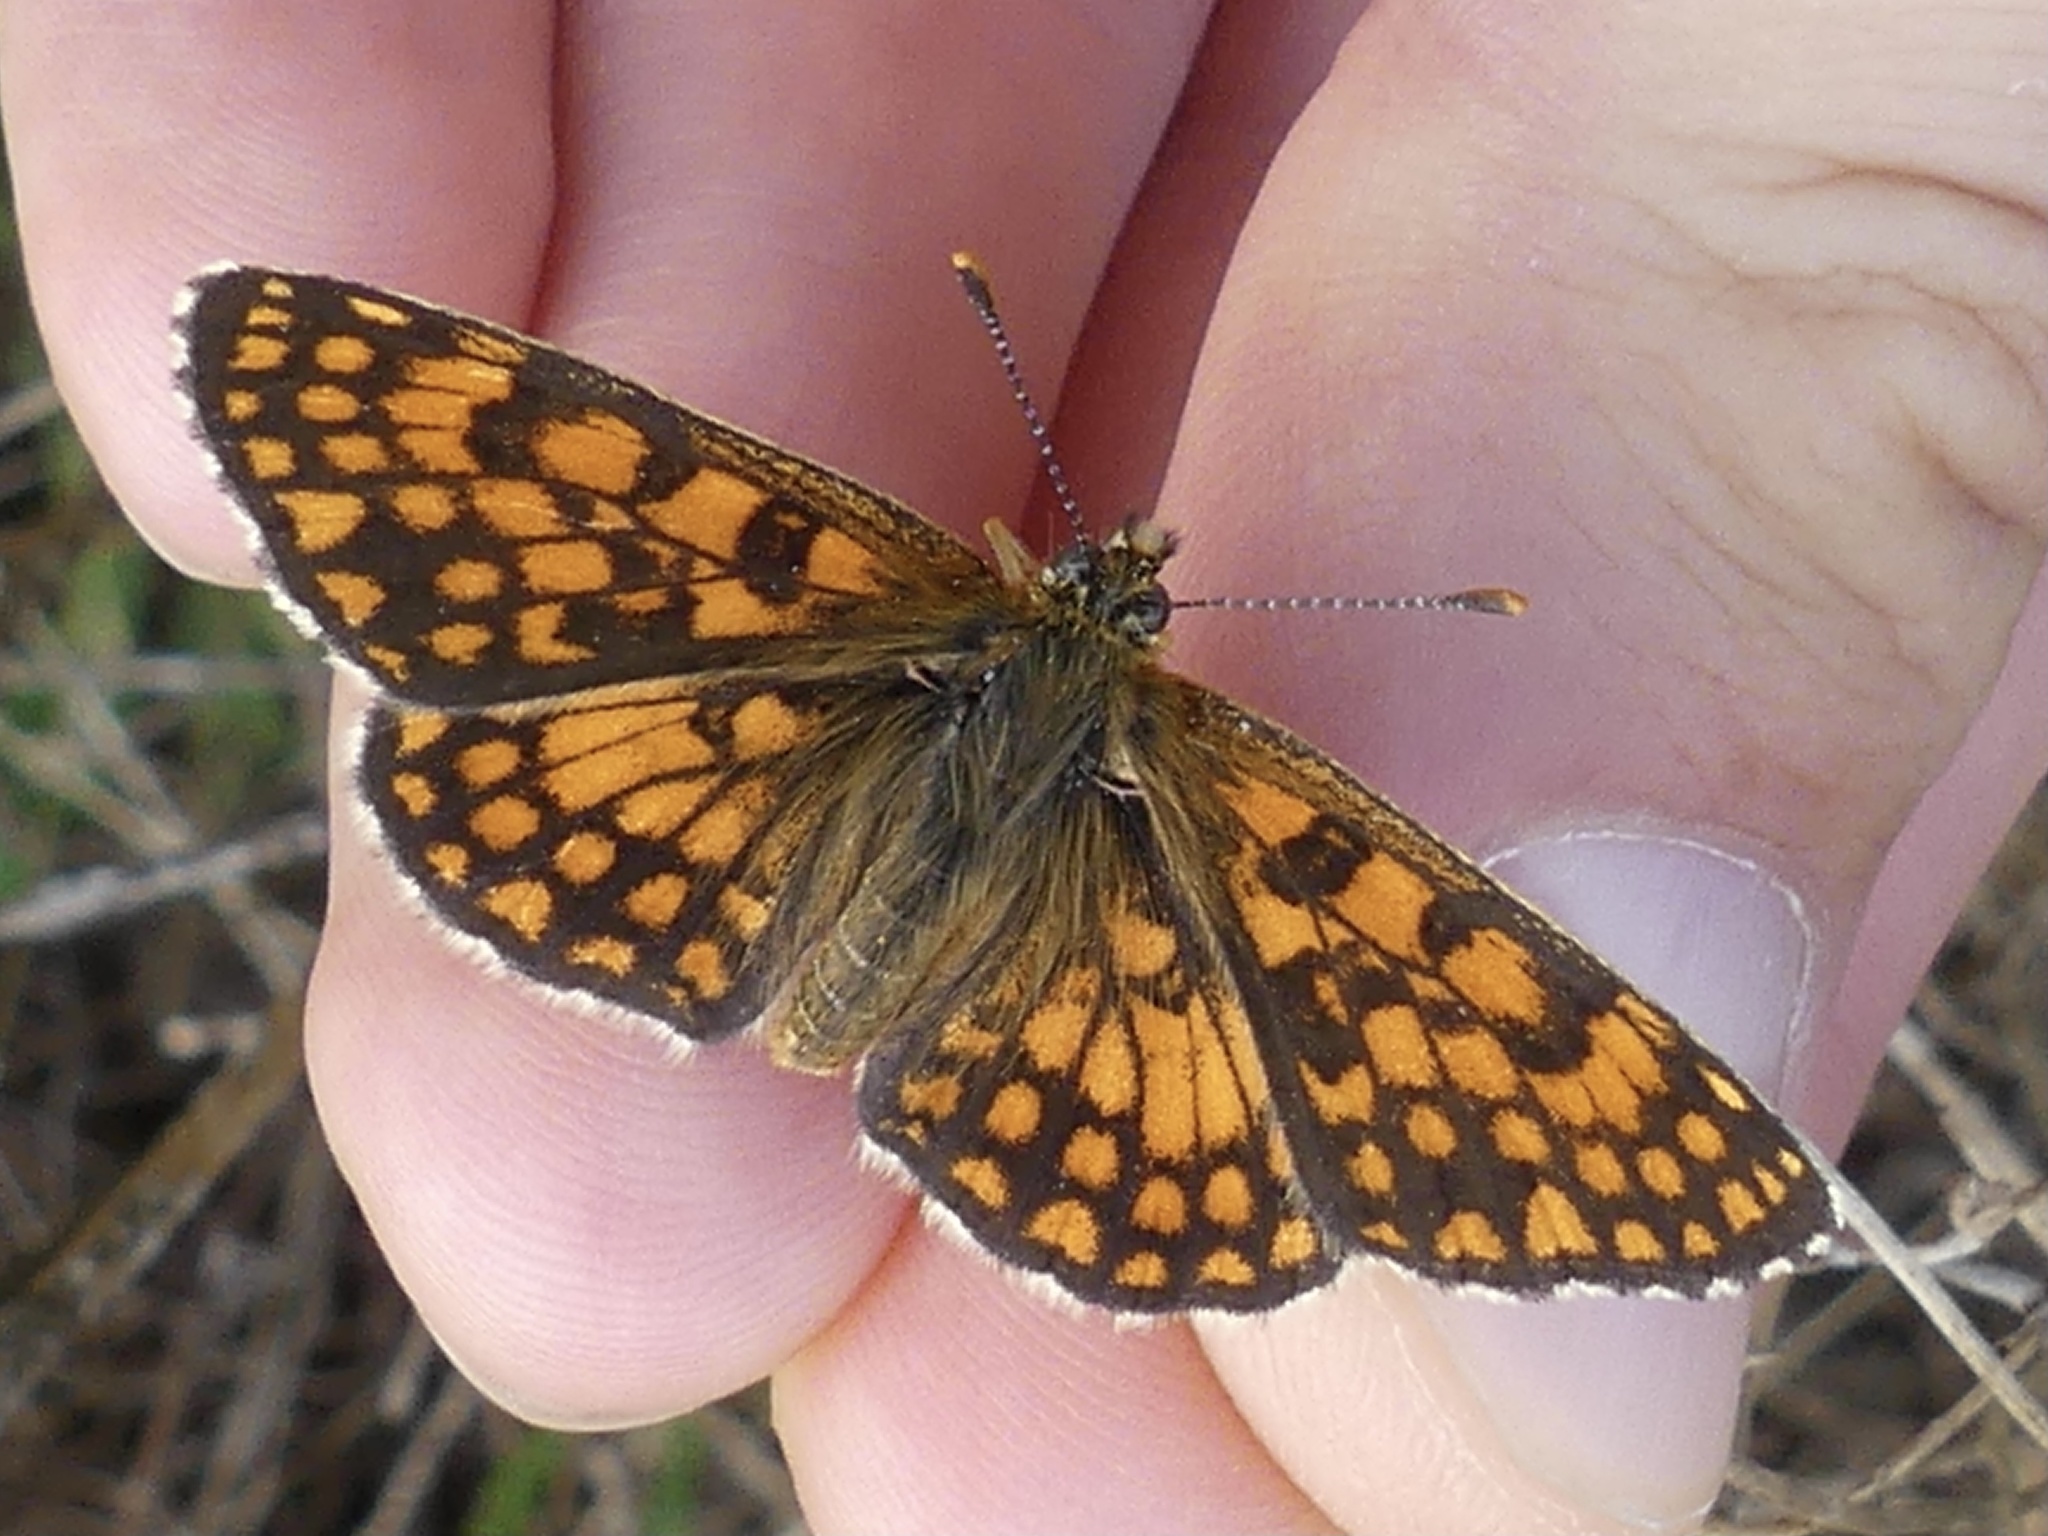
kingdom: Animalia
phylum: Arthropoda
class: Insecta
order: Lepidoptera
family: Nymphalidae
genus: Mellicta
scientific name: Mellicta athalia
